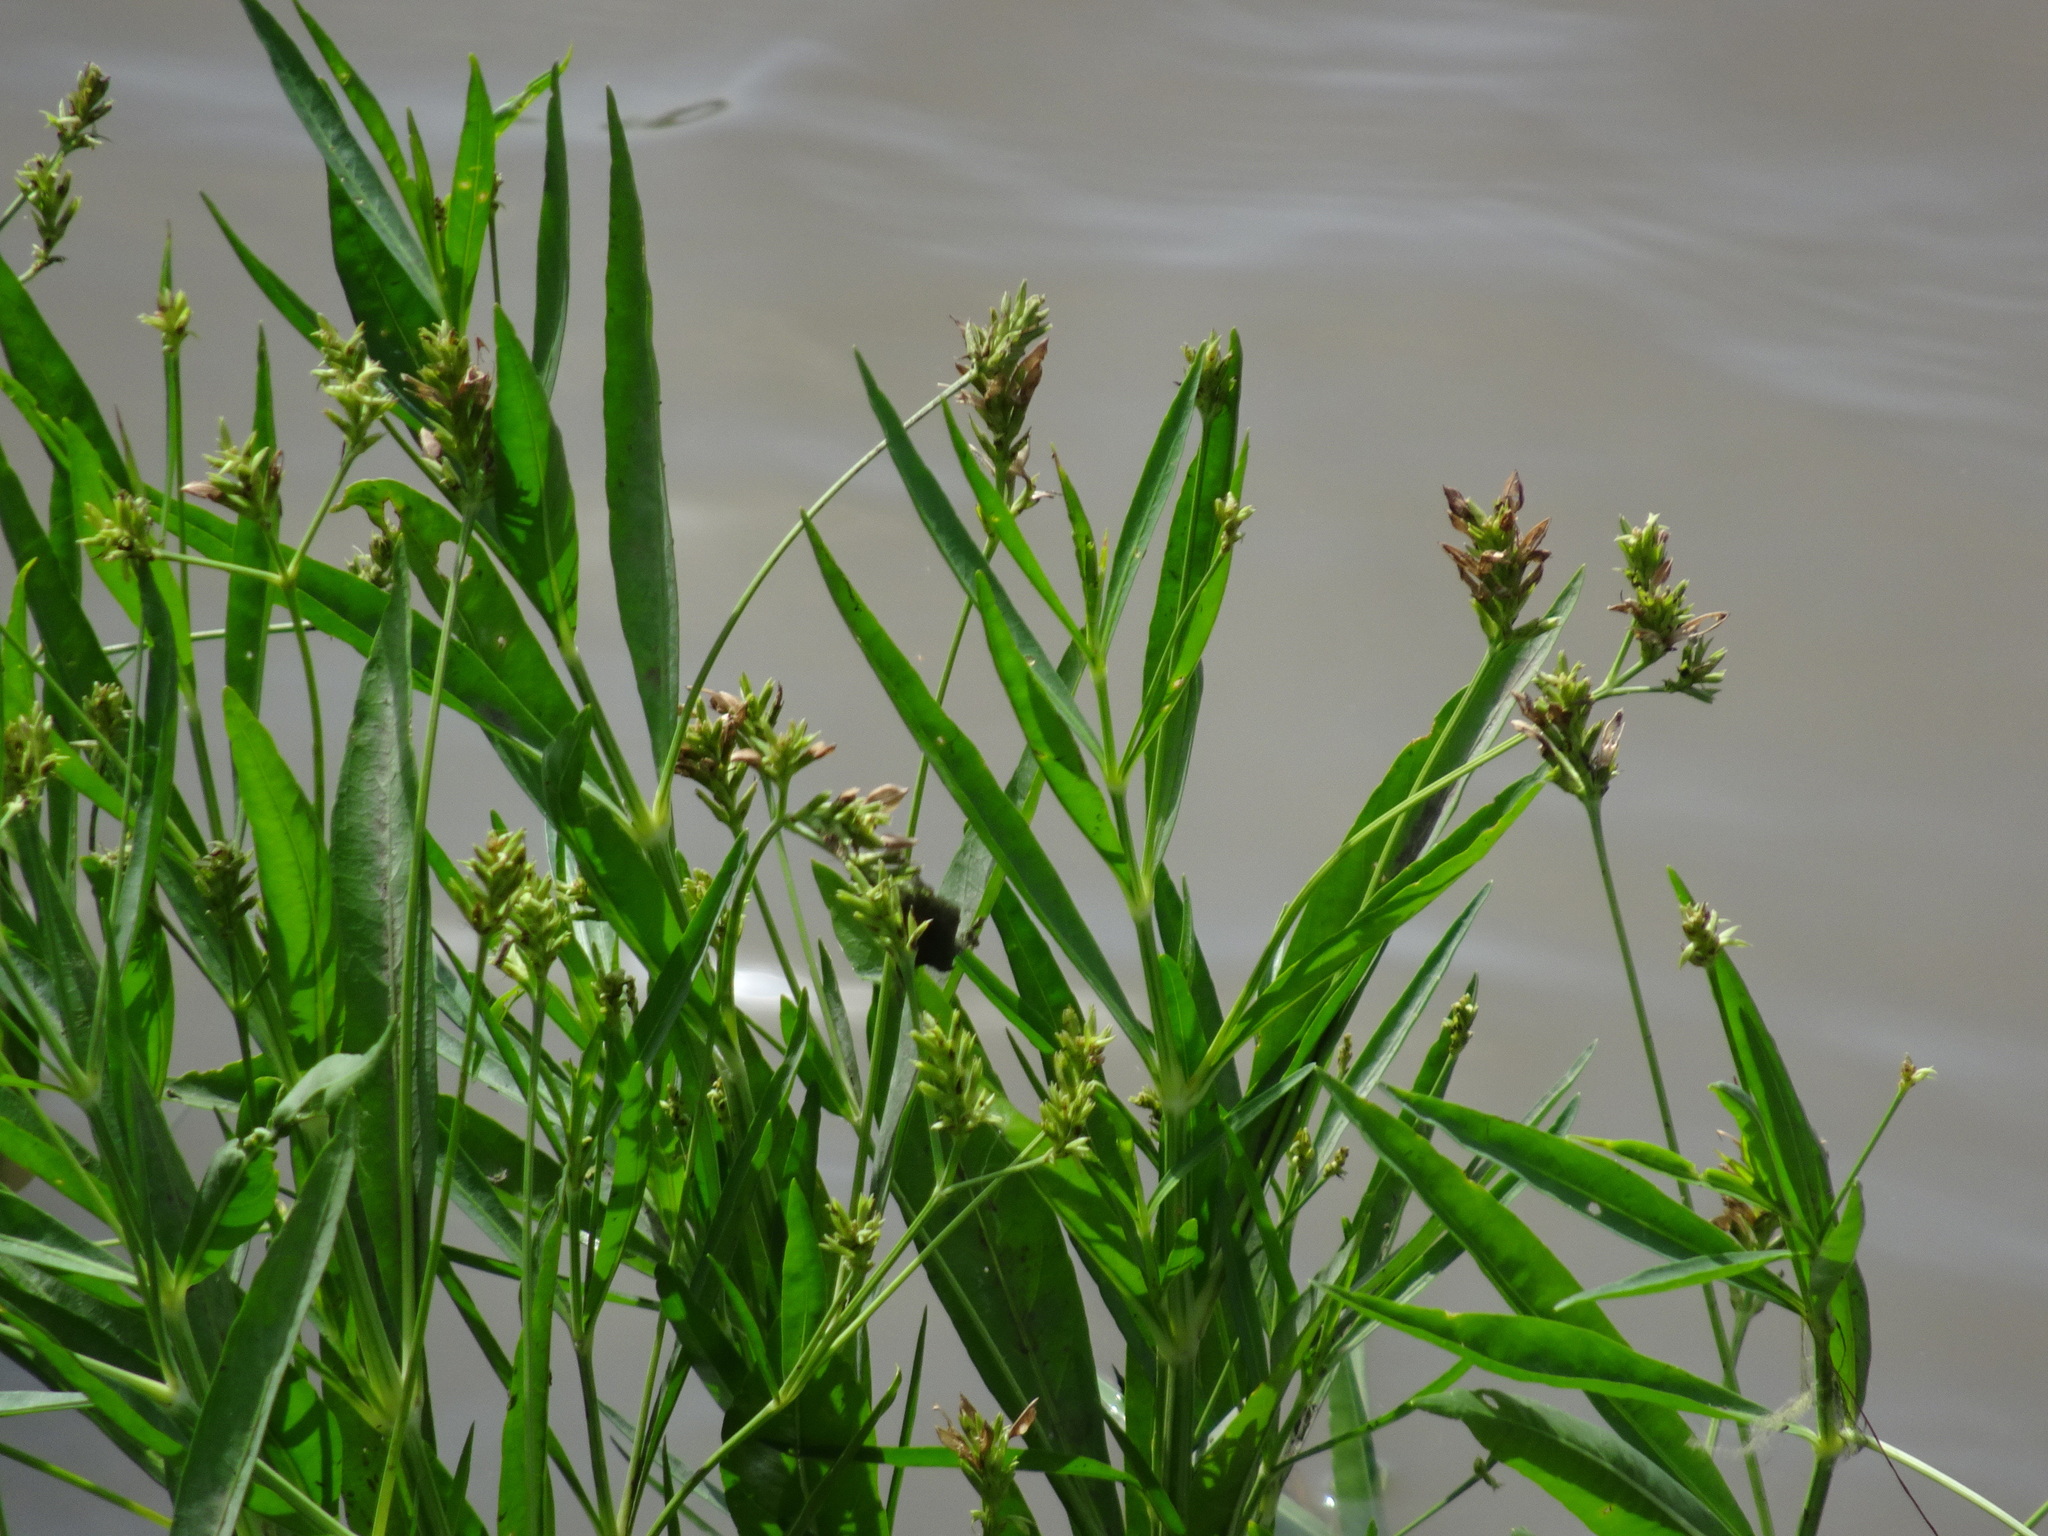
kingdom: Plantae
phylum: Tracheophyta
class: Magnoliopsida
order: Lamiales
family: Acanthaceae
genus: Dianthera
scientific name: Dianthera americana
